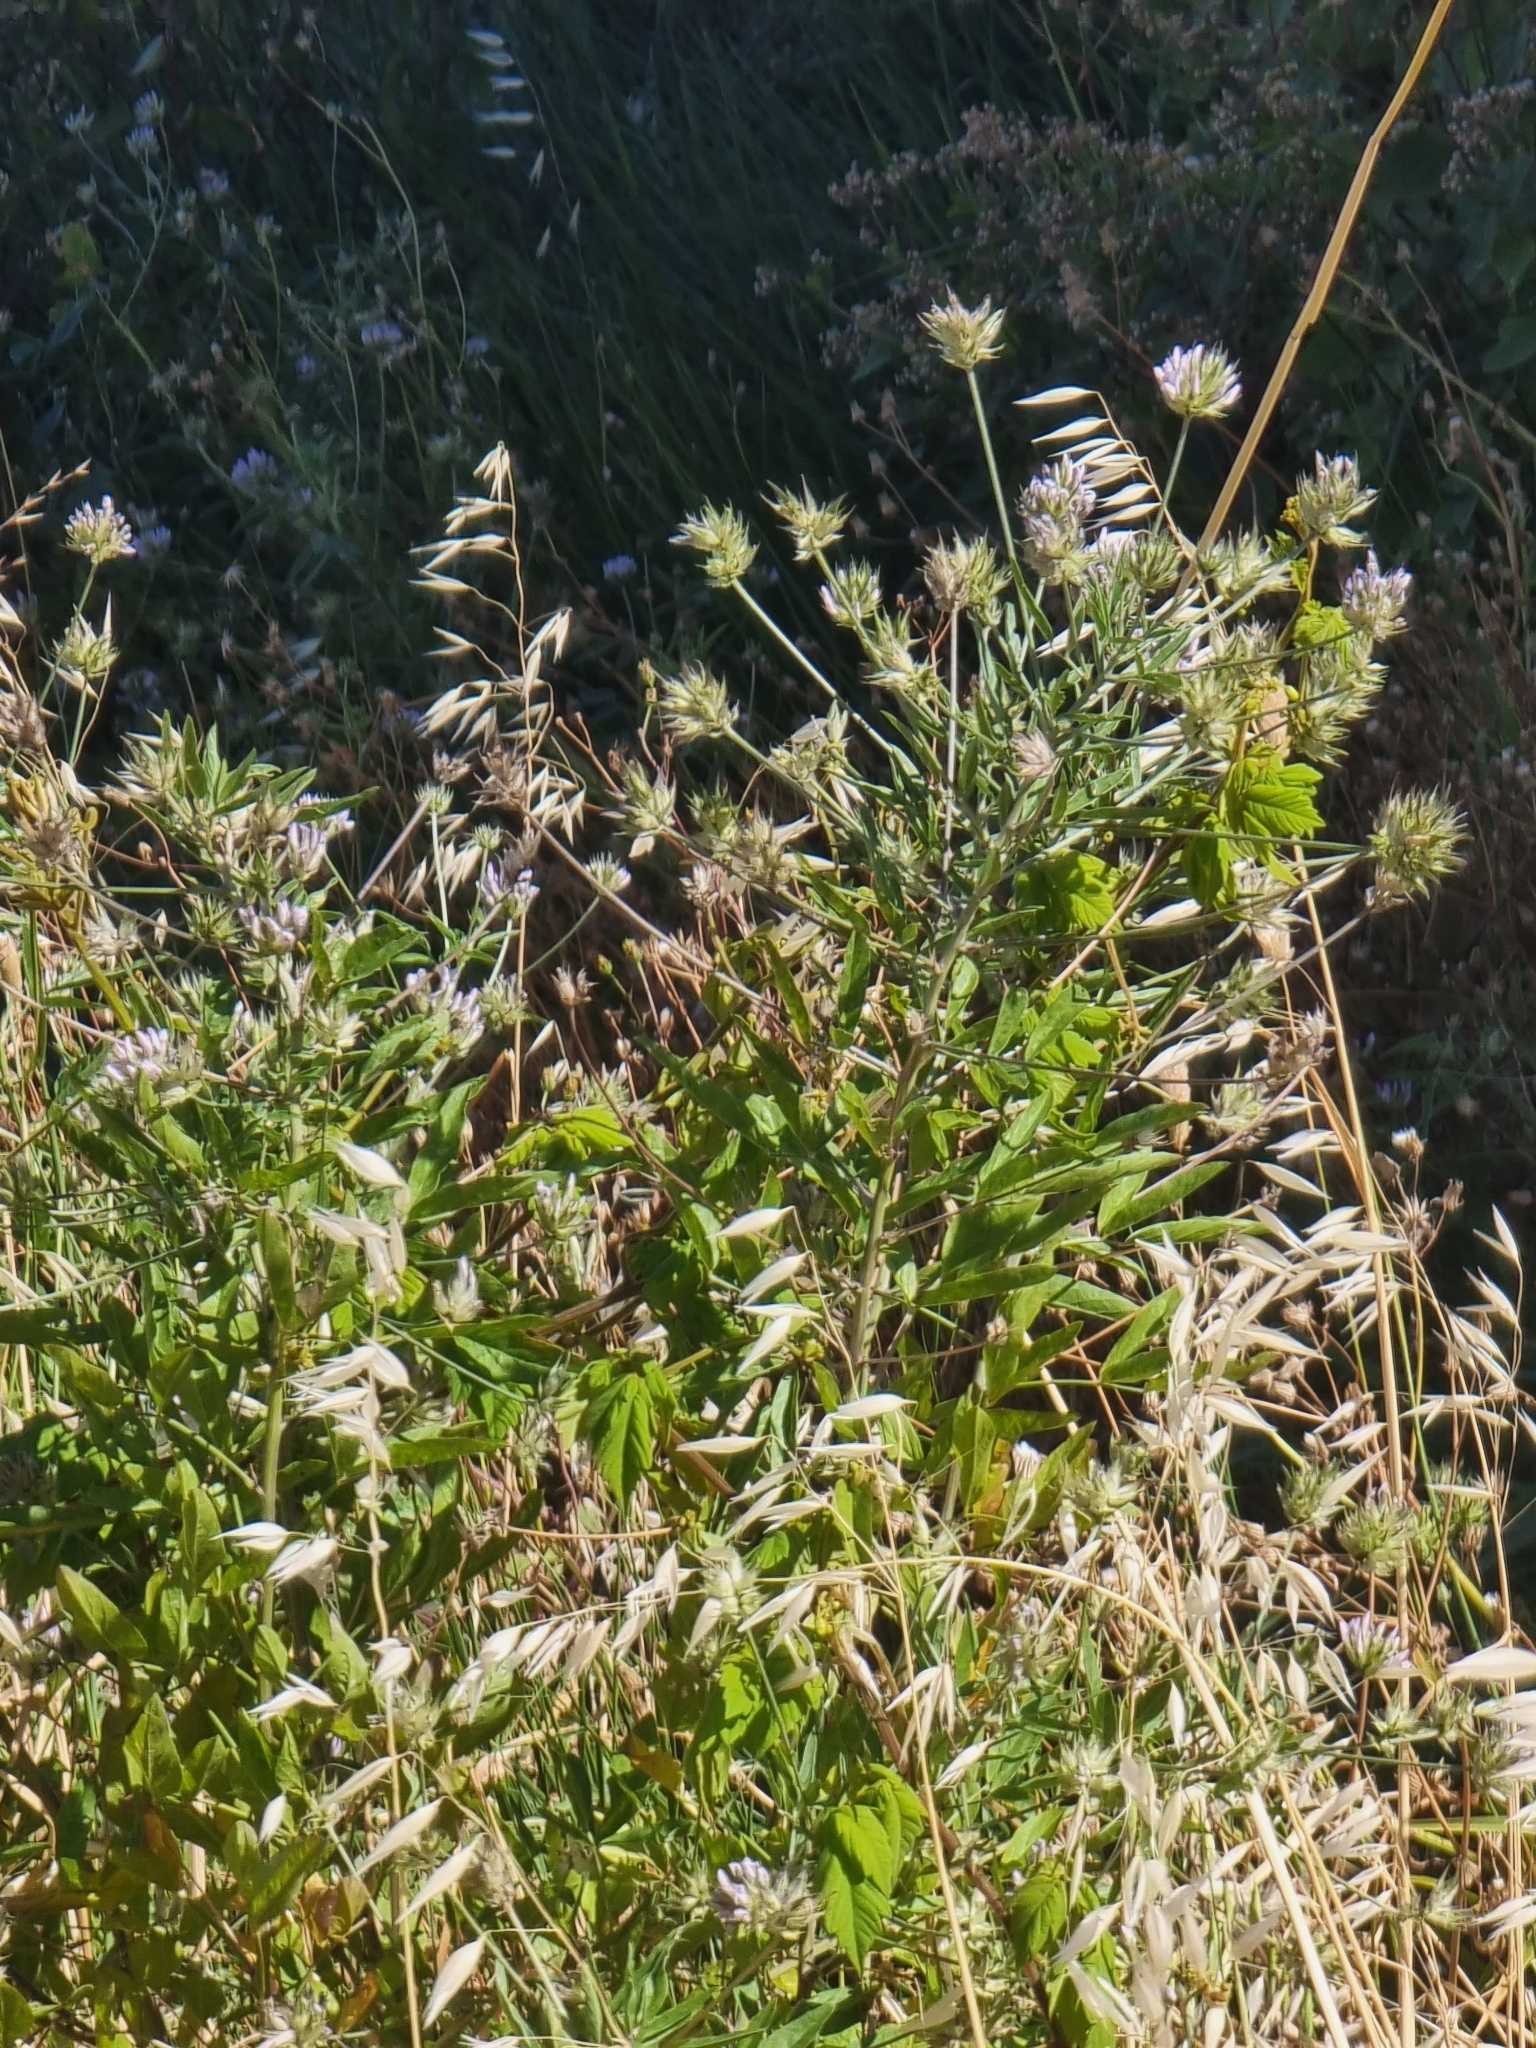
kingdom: Plantae
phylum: Tracheophyta
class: Magnoliopsida
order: Fabales
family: Fabaceae
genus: Bituminaria
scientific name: Bituminaria bituminosa
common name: Arabian pea
